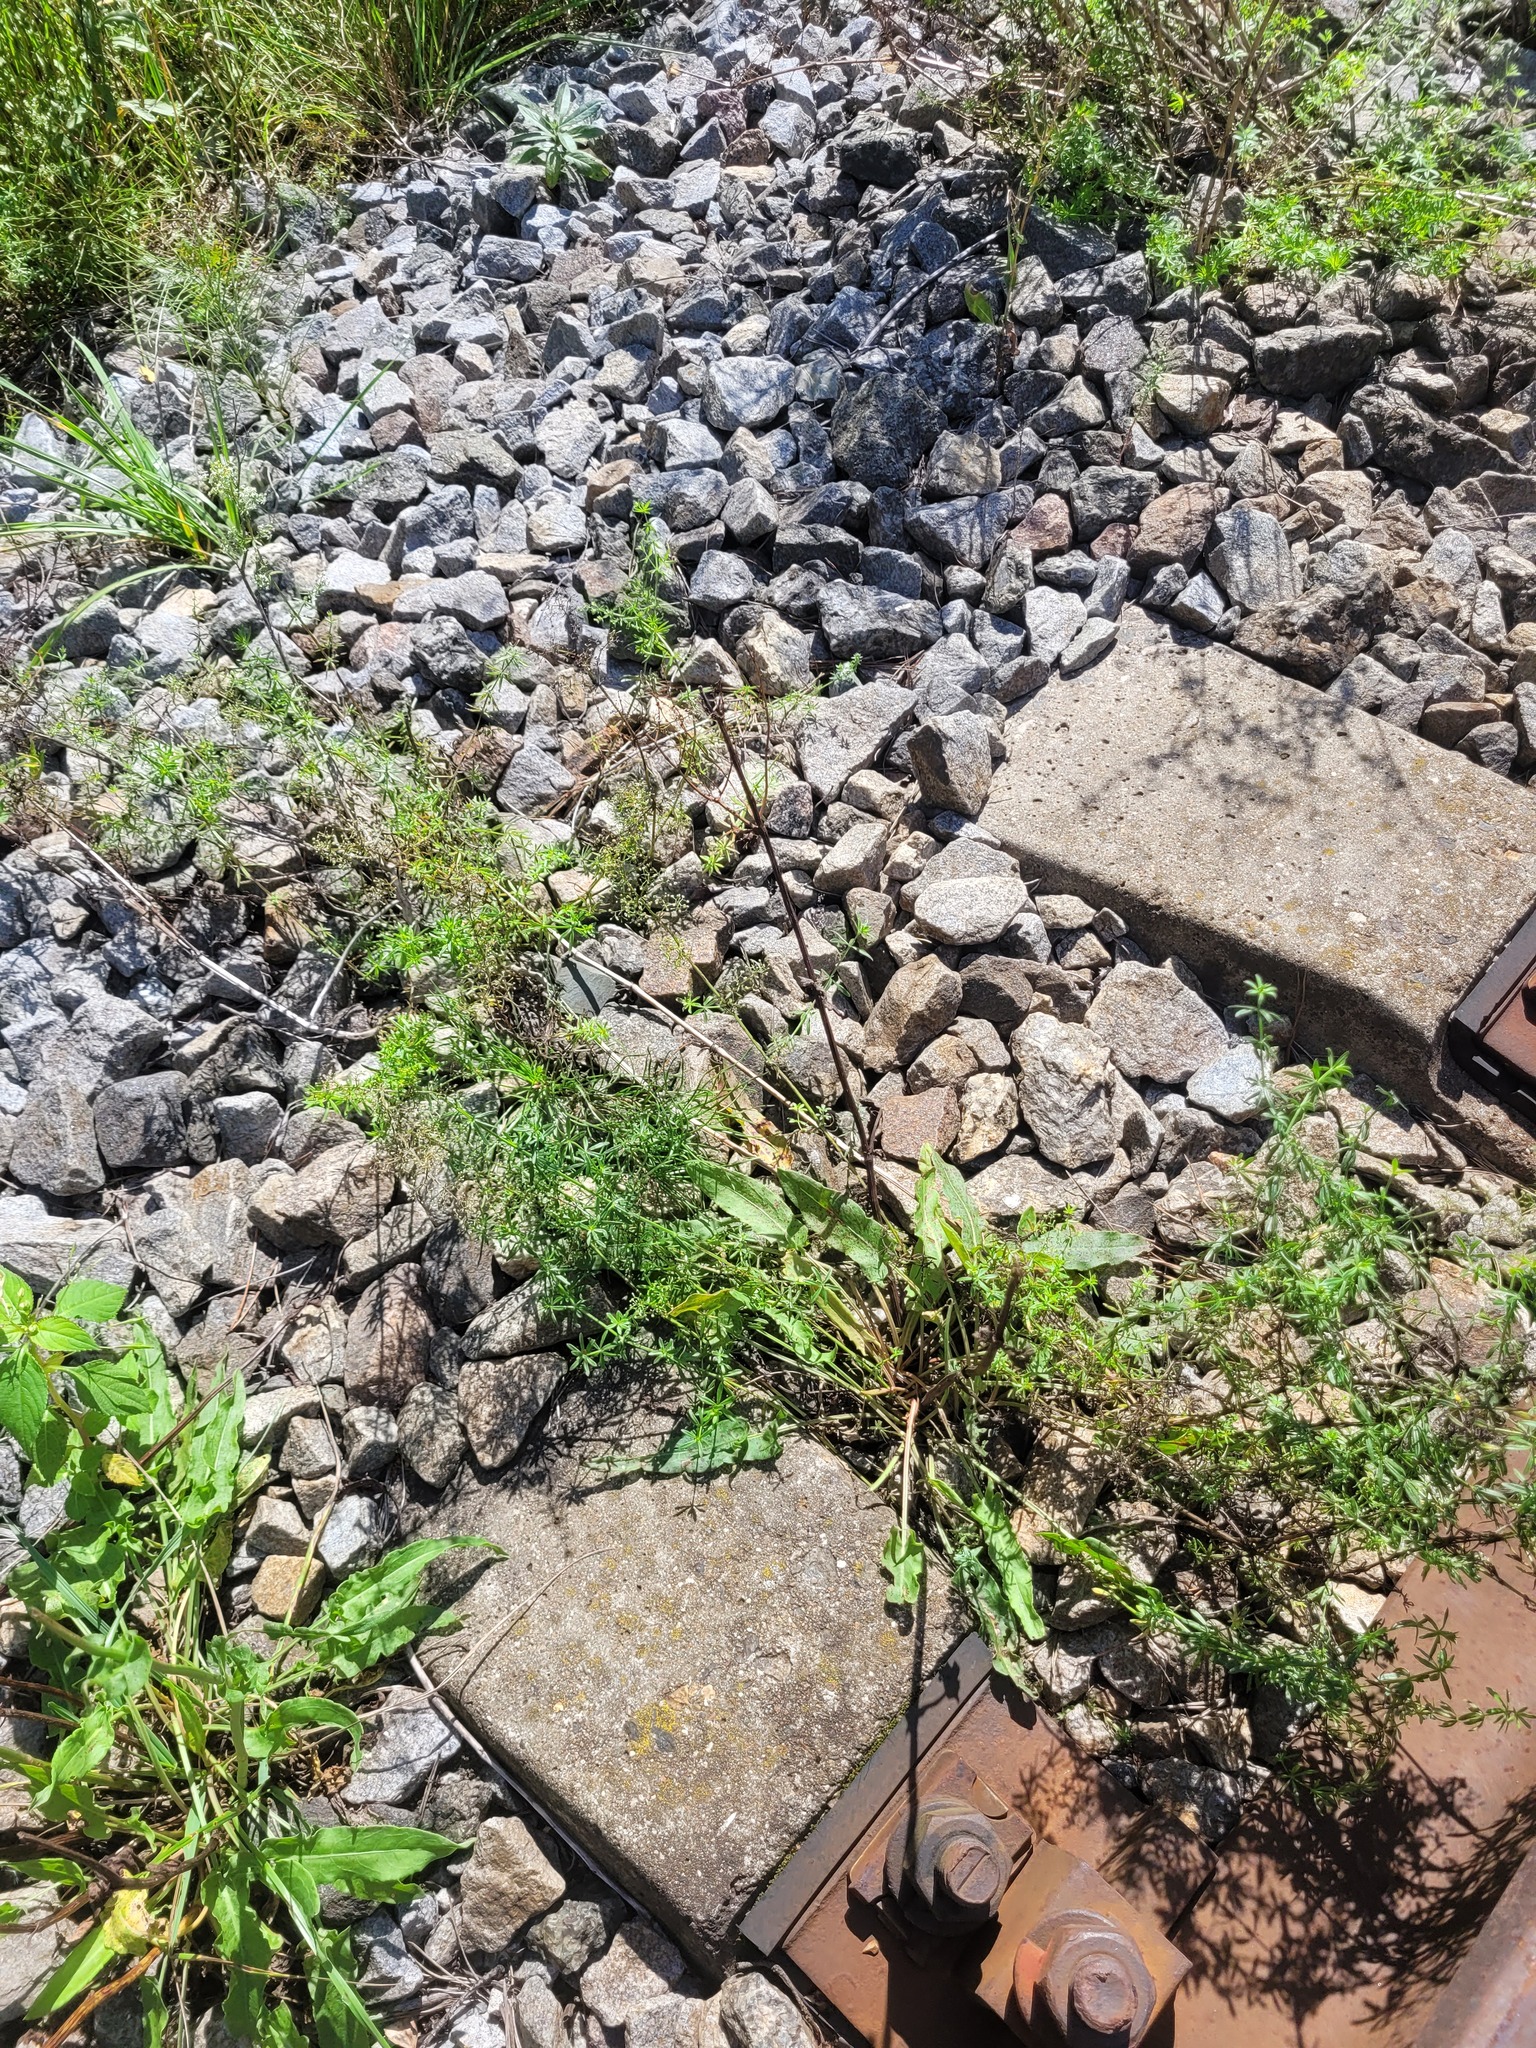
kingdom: Plantae
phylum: Tracheophyta
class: Magnoliopsida
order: Caryophyllales
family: Polygonaceae
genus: Rumex
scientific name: Rumex thyrsiflorus
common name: Garden sorrel
